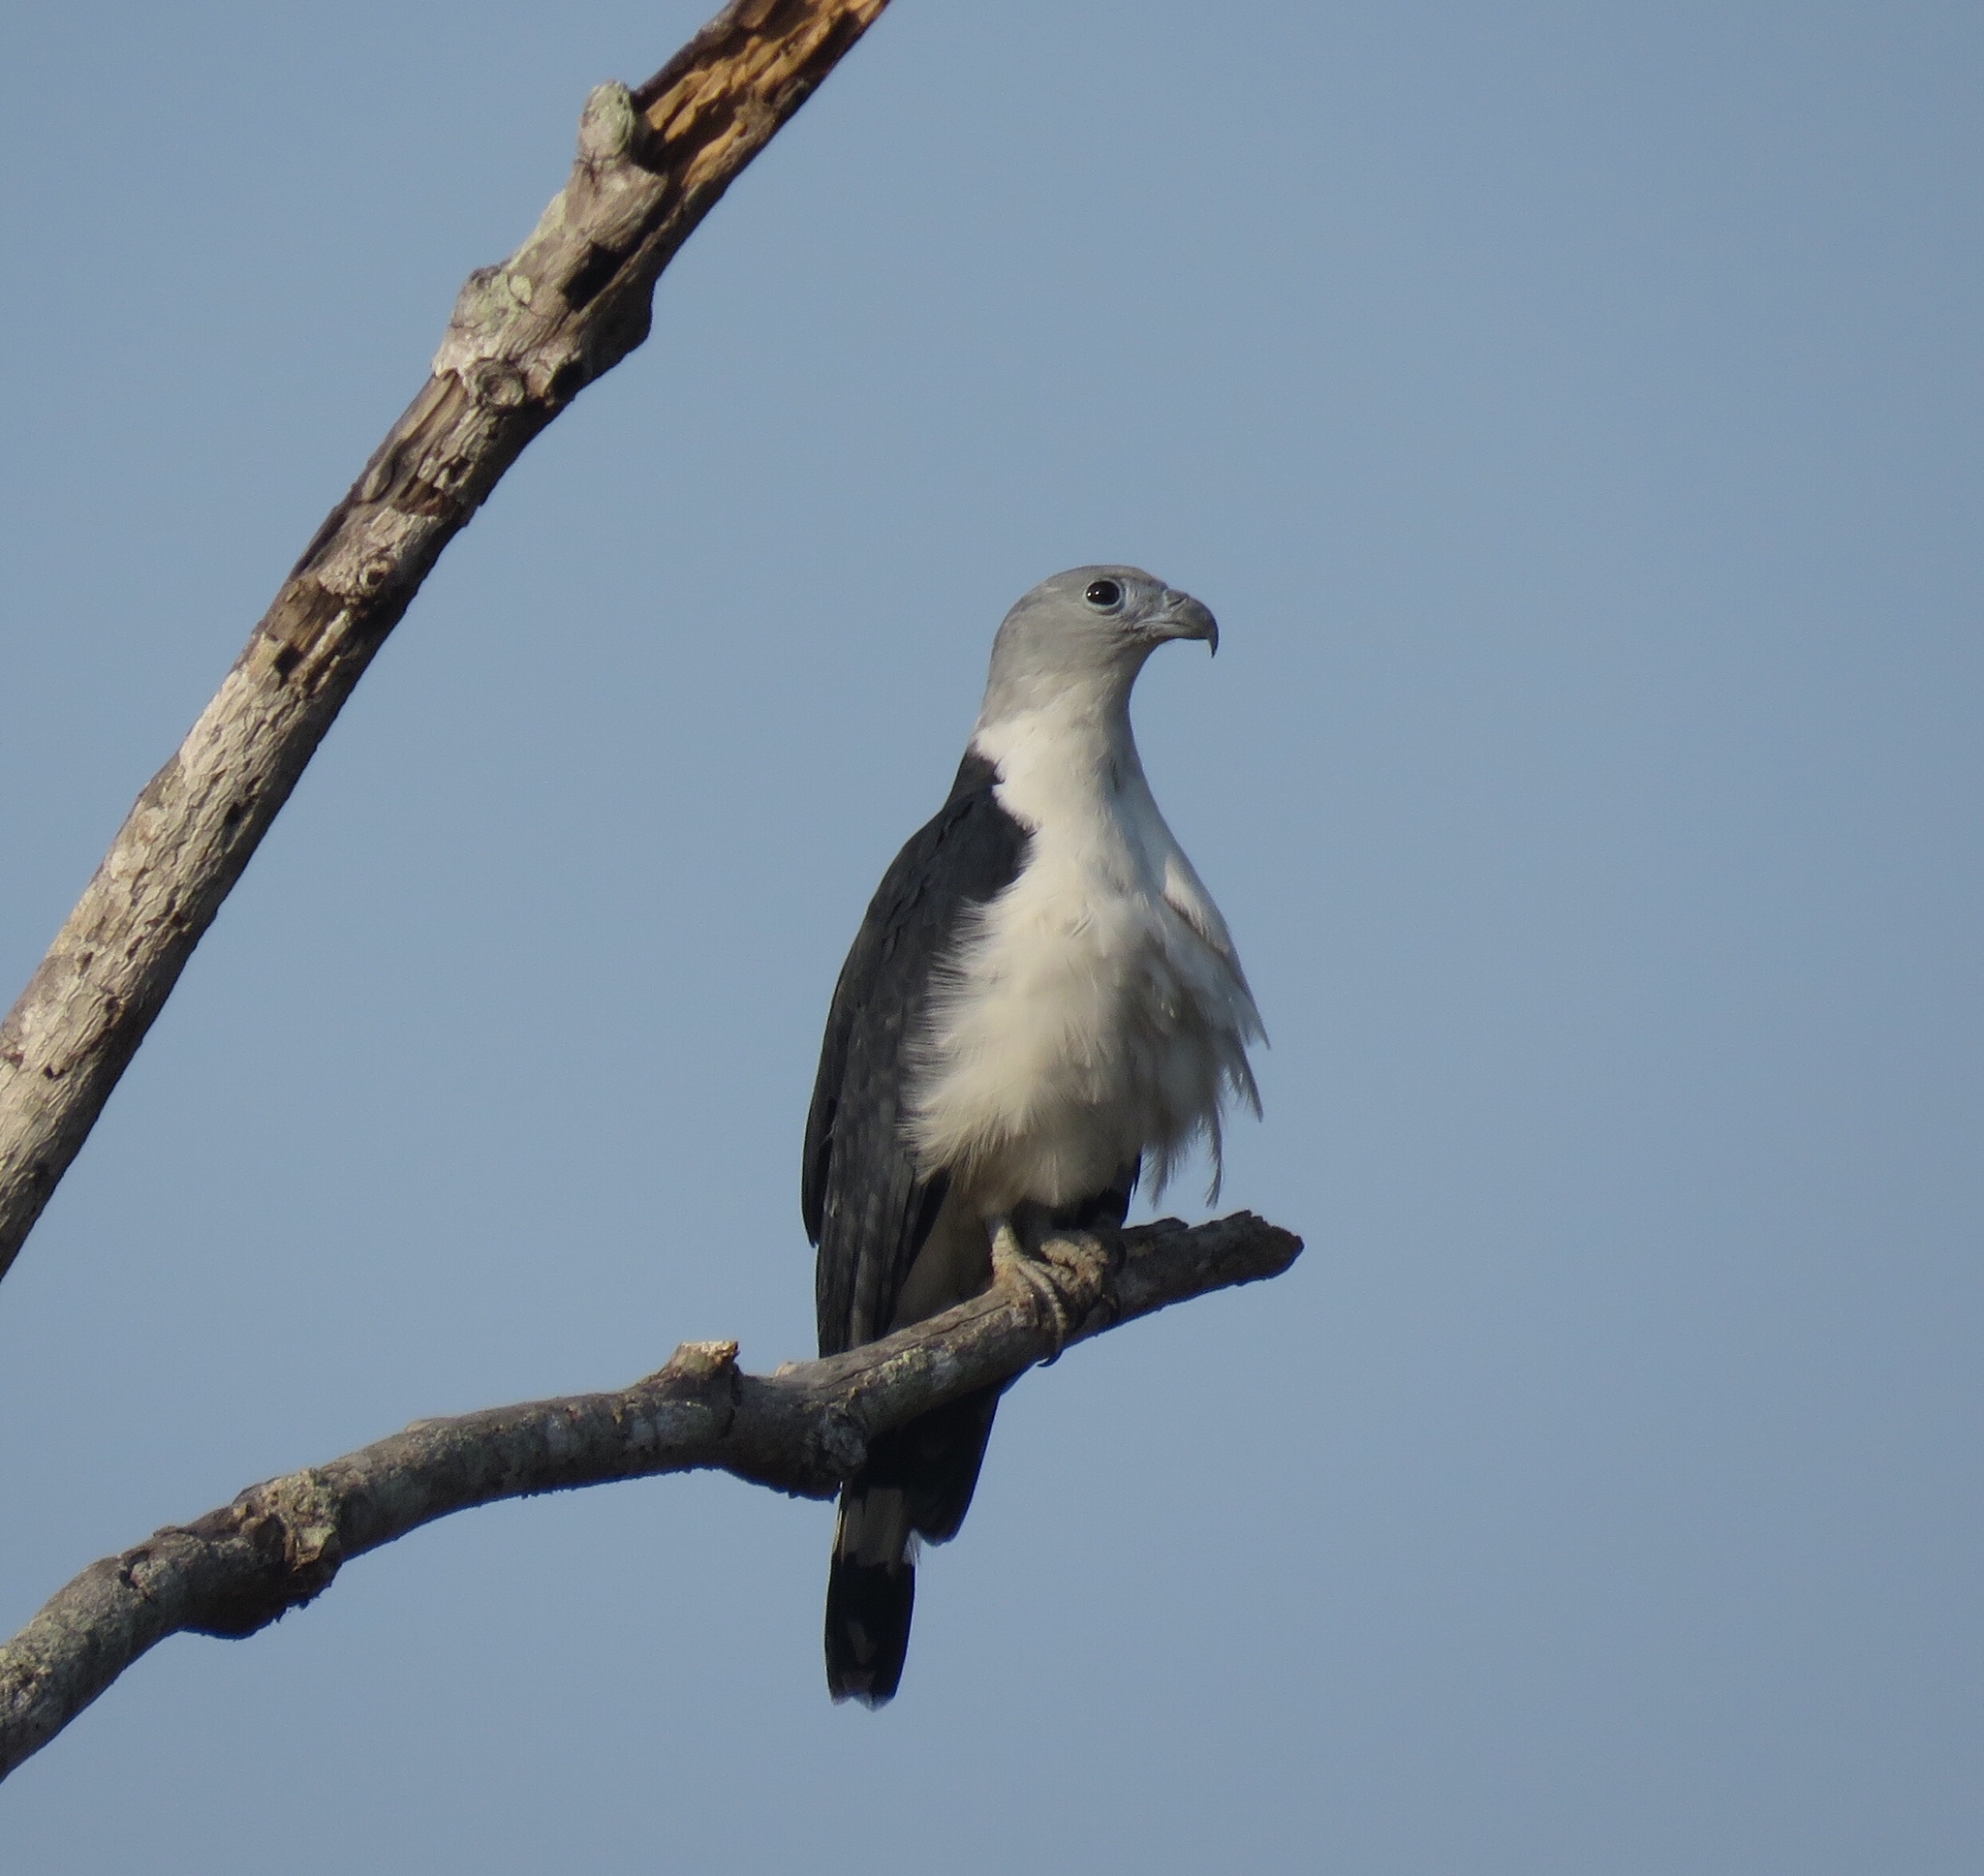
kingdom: Animalia
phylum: Chordata
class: Aves
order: Accipitriformes
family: Accipitridae
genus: Leptodon
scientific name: Leptodon cayanensis
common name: Gray-headed kite
